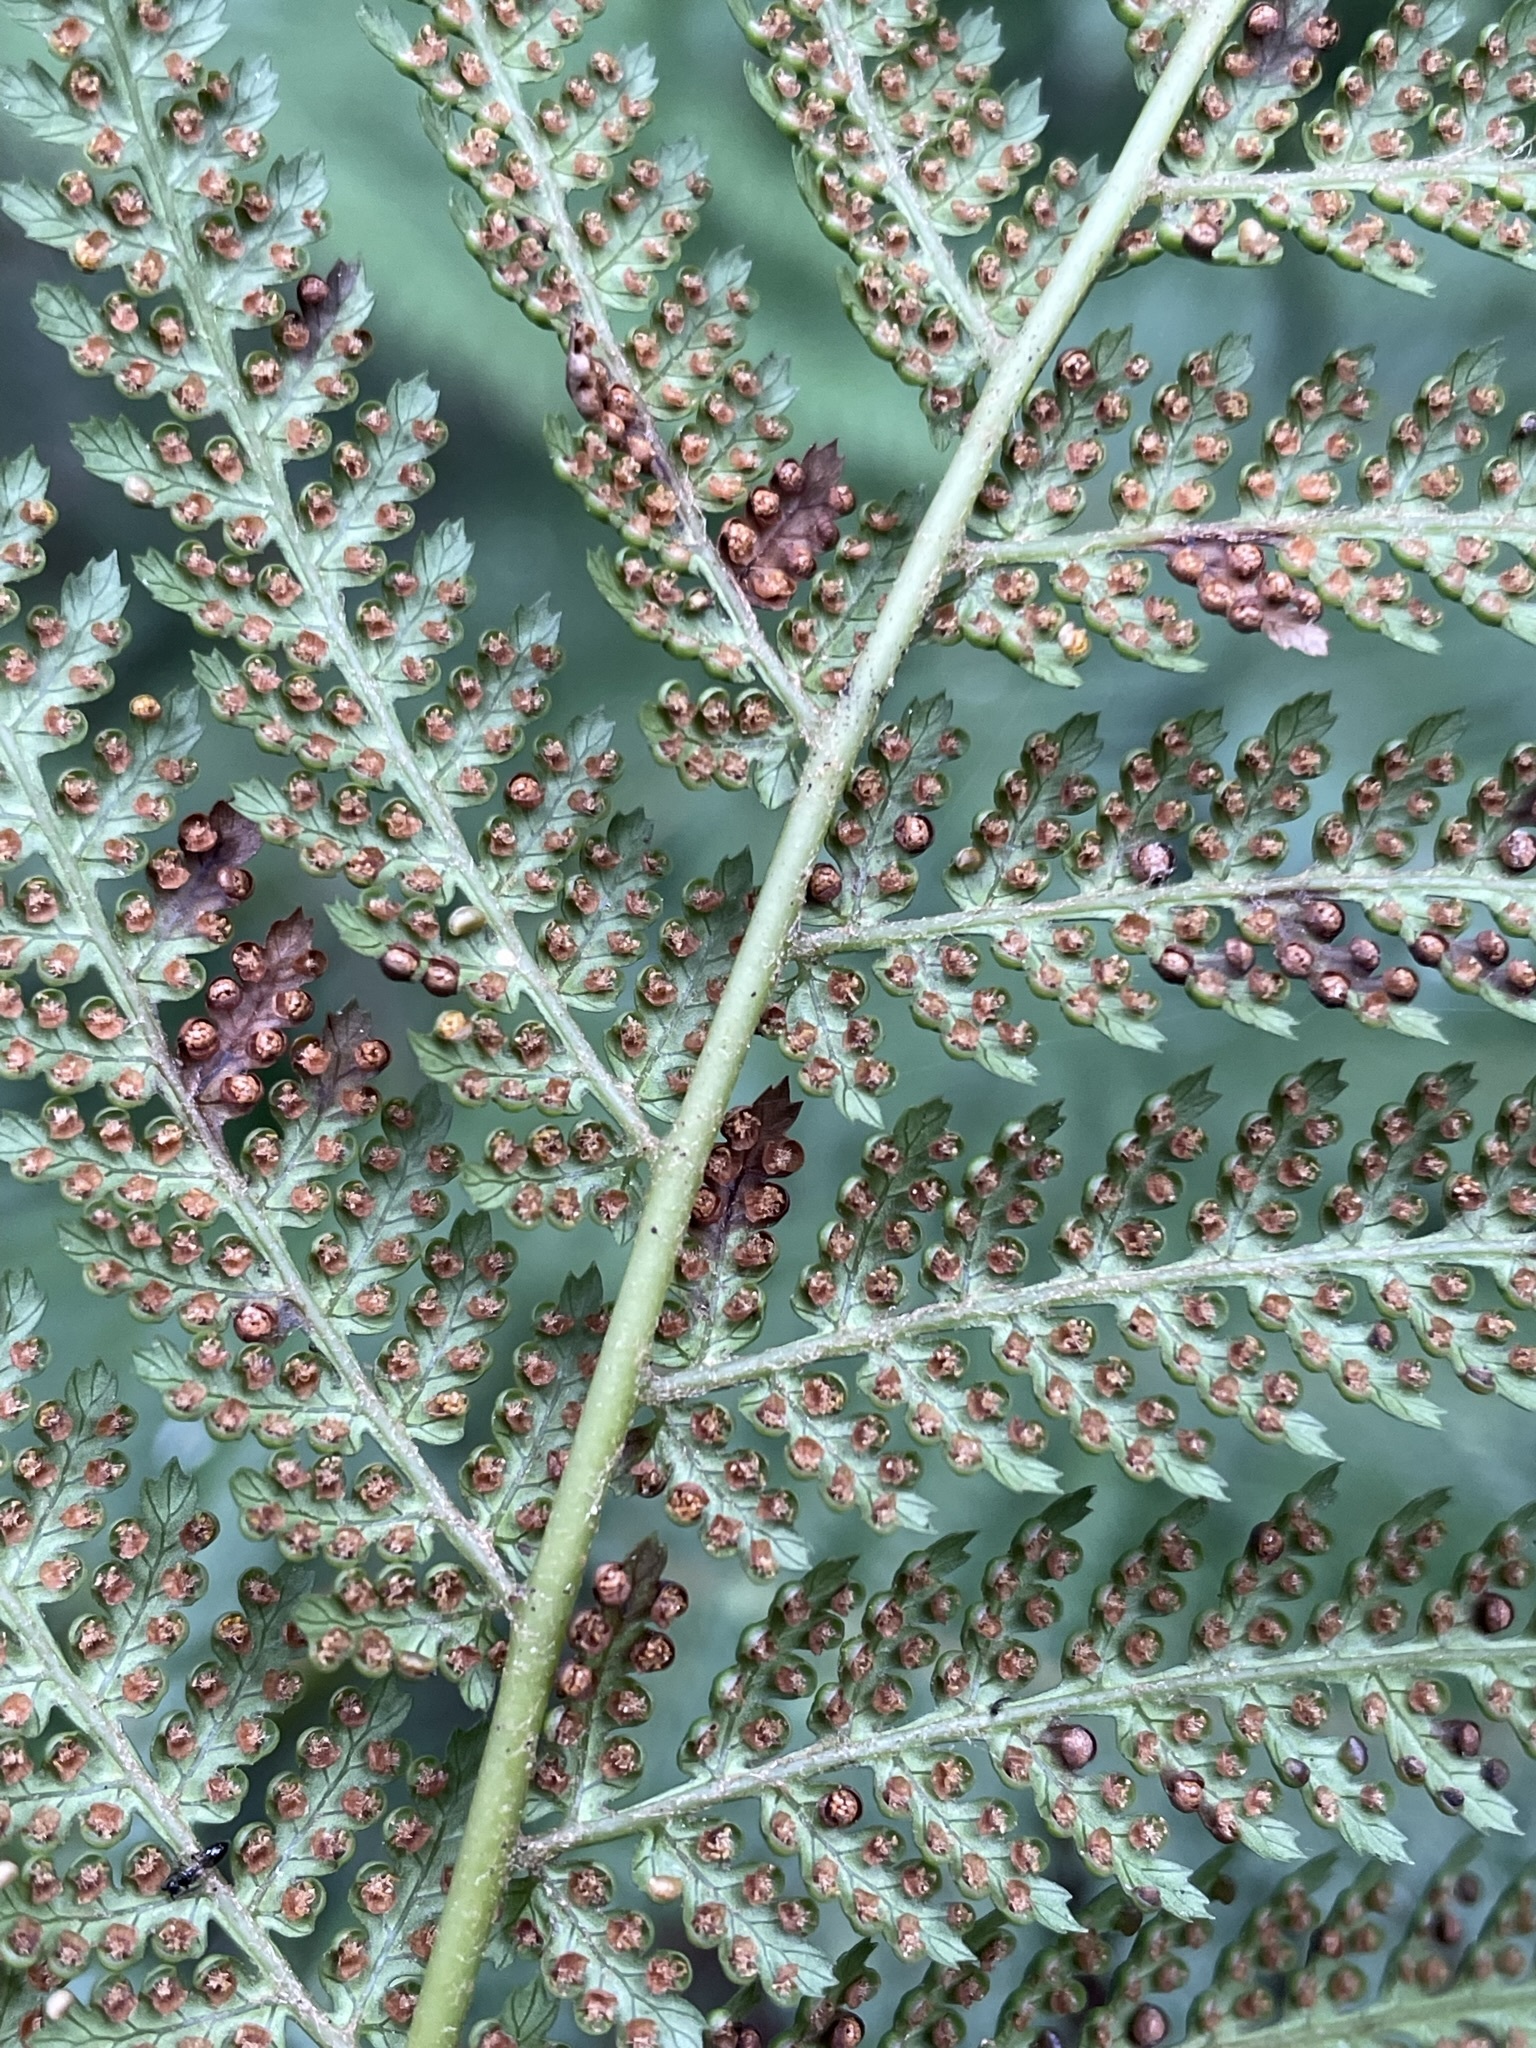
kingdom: Plantae
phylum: Tracheophyta
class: Polypodiopsida
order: Cyatheales
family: Dicksoniaceae
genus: Dicksonia
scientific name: Dicksonia antarctica
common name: Australian treefern
